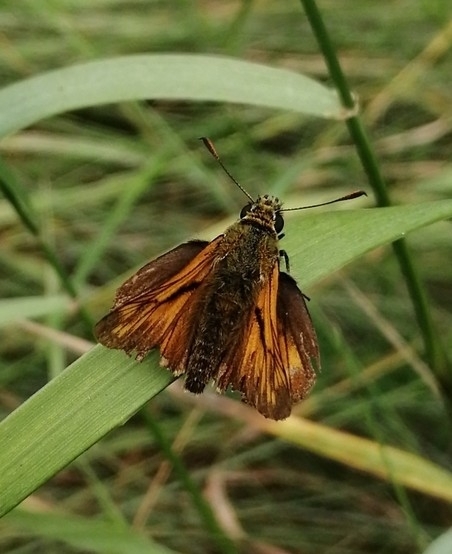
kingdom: Animalia
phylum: Arthropoda
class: Insecta
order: Lepidoptera
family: Hesperiidae
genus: Ochlodes
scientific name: Ochlodes venata
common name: Large skipper
